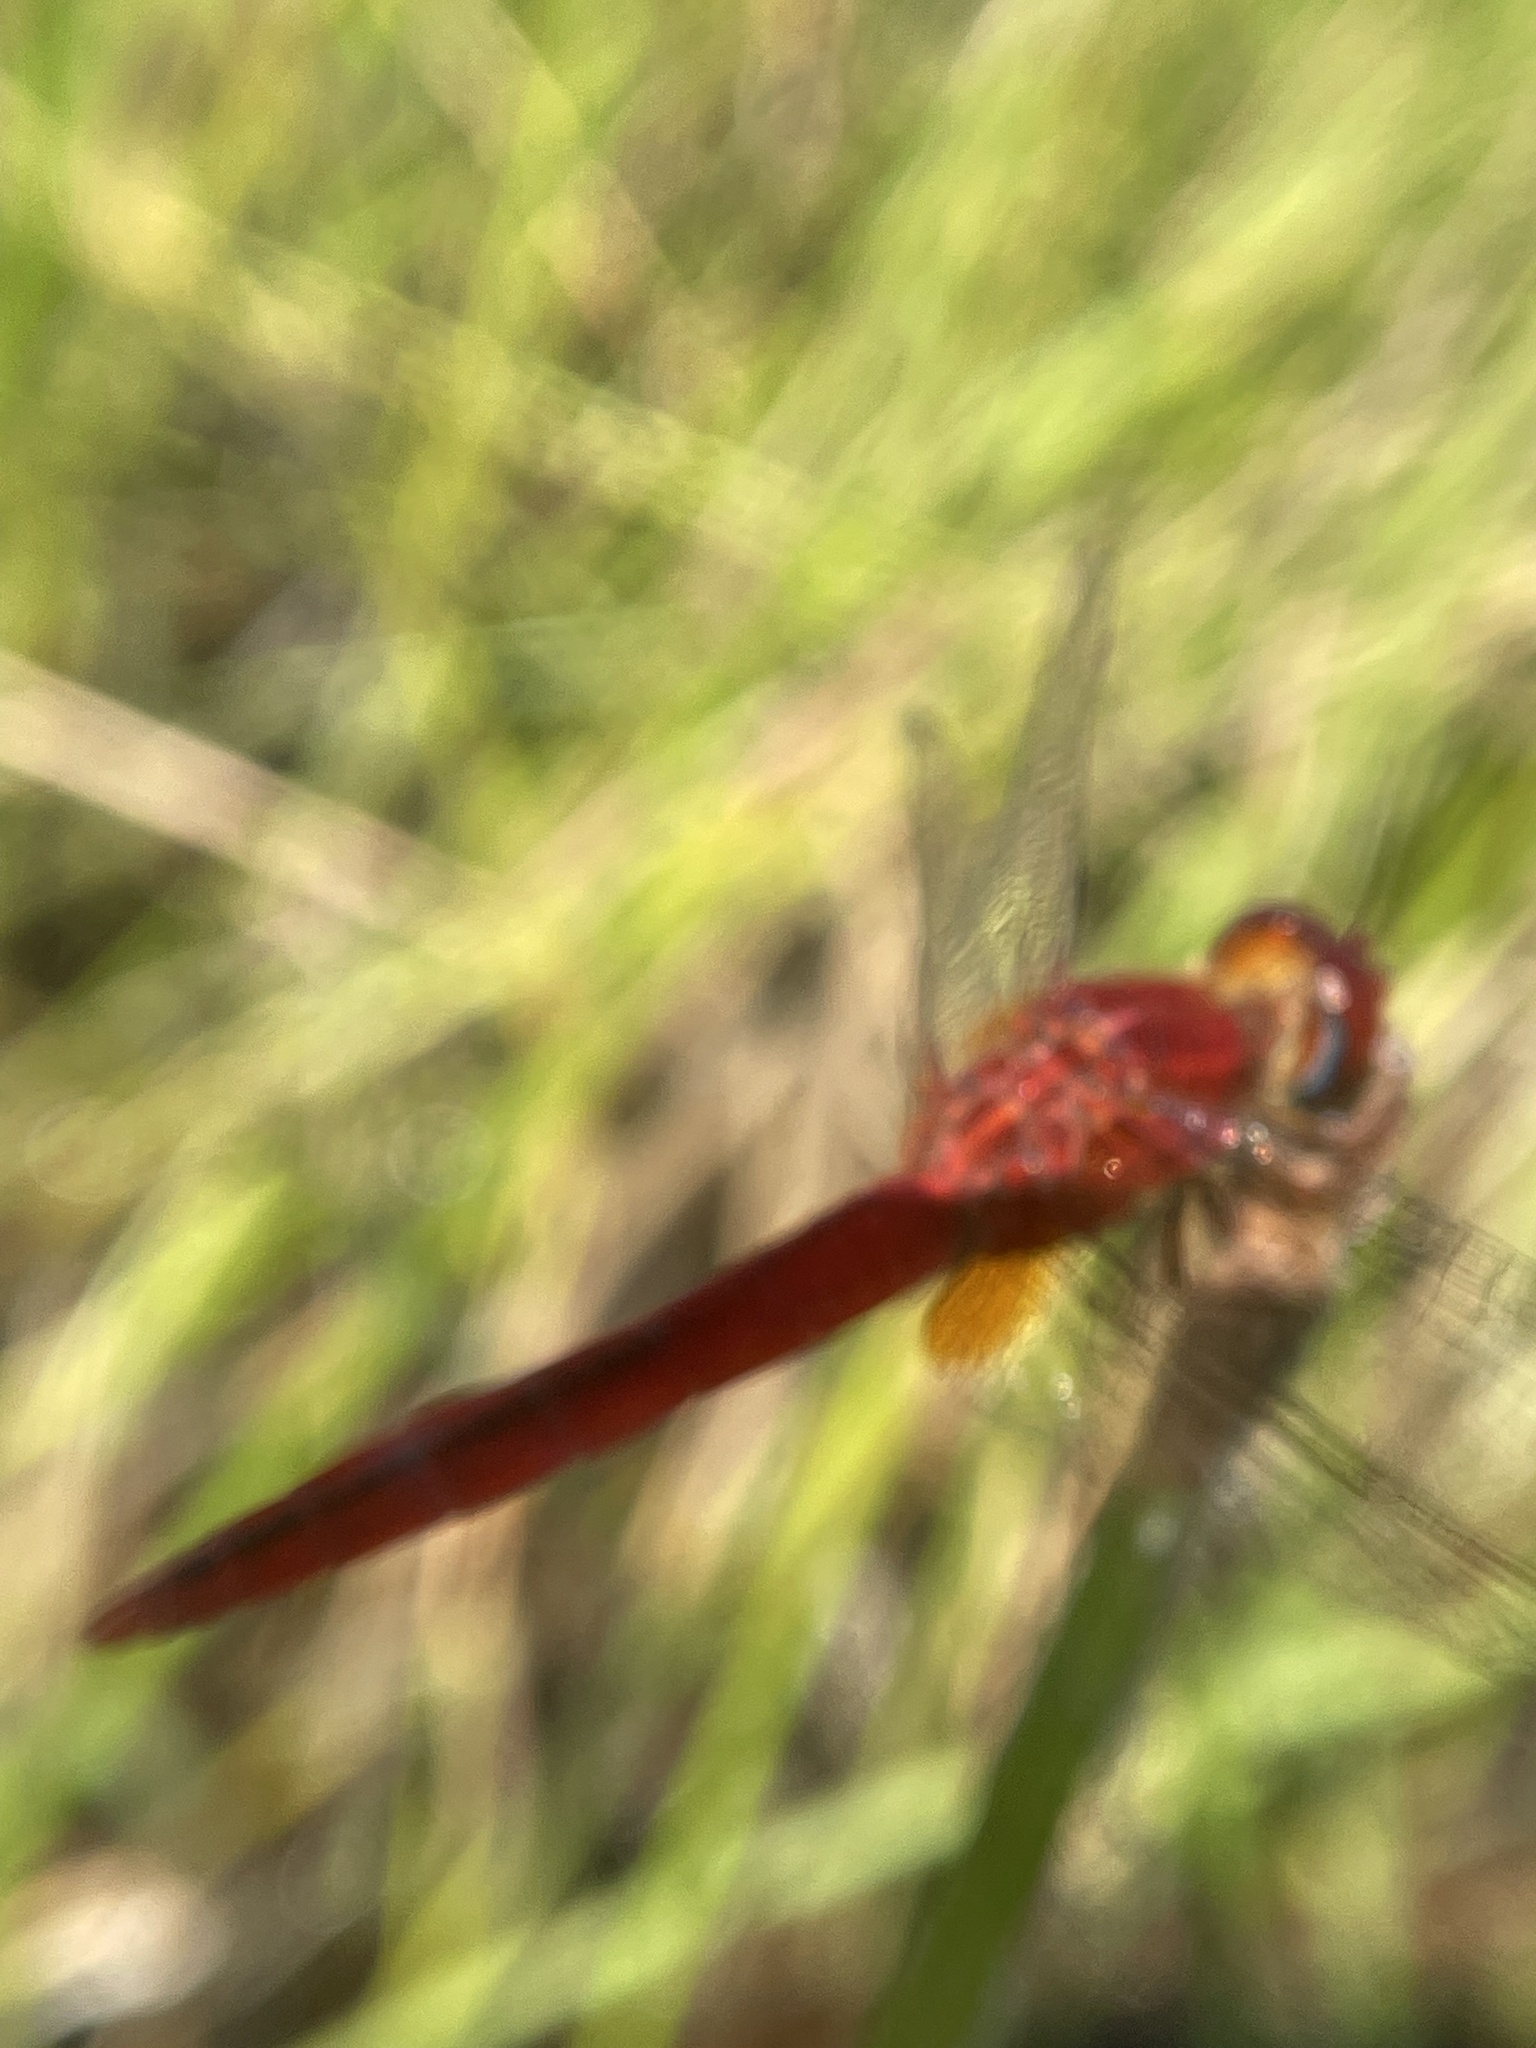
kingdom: Animalia
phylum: Arthropoda
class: Insecta
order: Odonata
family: Libellulidae
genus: Crocothemis
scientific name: Crocothemis servilia
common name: Scarlet skimmer
